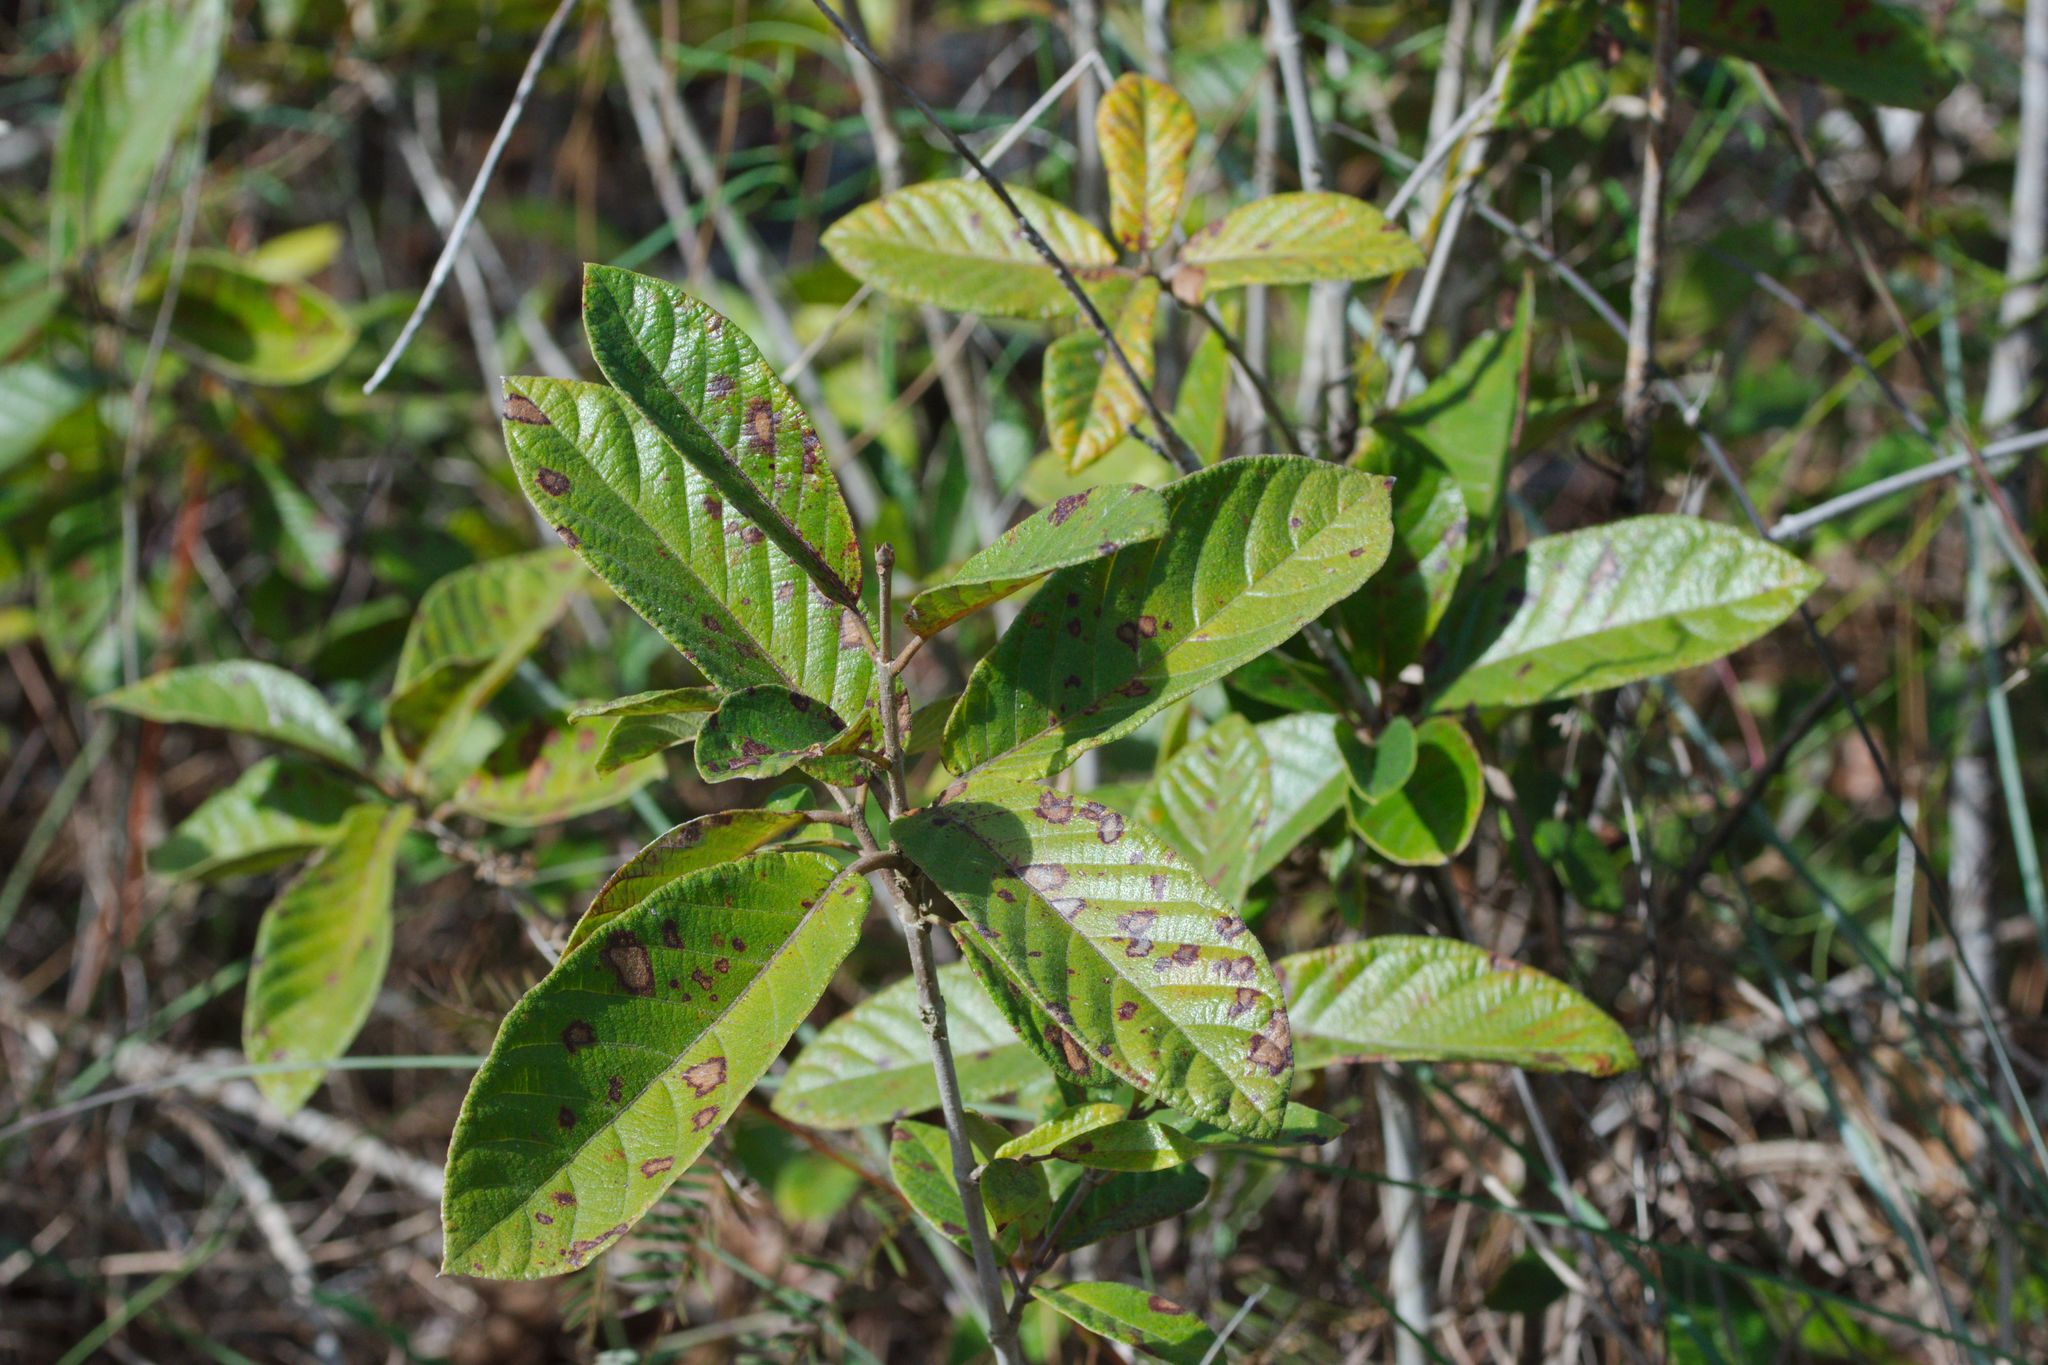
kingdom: Plantae
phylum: Tracheophyta
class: Magnoliopsida
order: Gentianales
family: Rubiaceae
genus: Guettarda
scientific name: Guettarda scabra
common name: Pigeon bay
